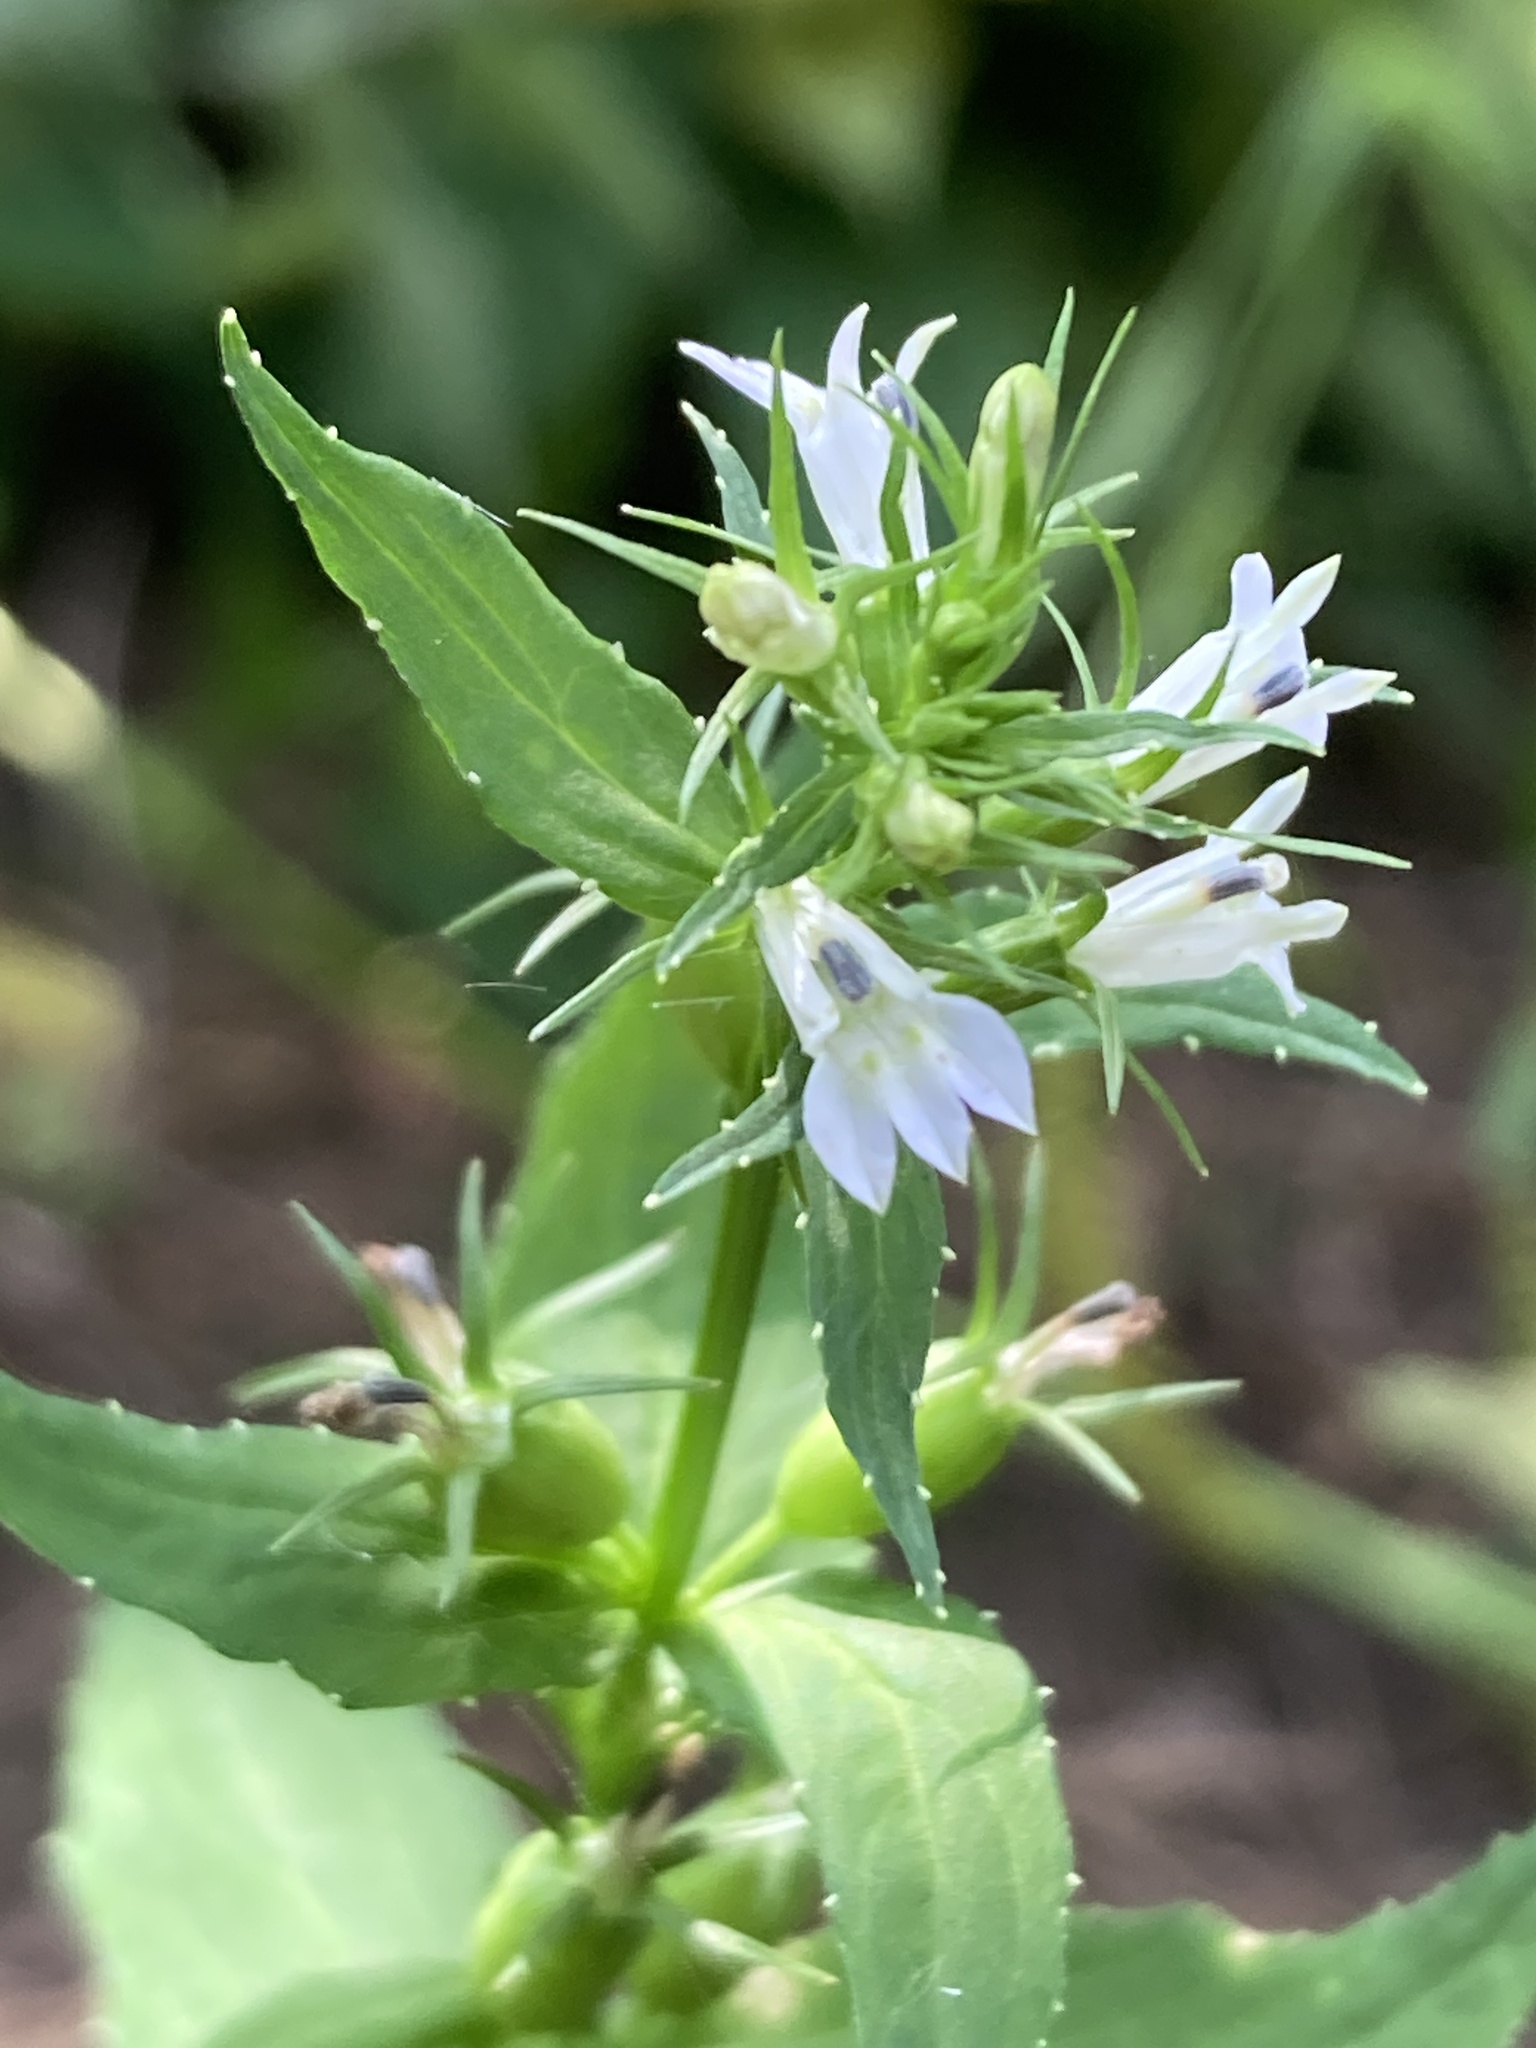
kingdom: Plantae
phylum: Tracheophyta
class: Magnoliopsida
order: Asterales
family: Campanulaceae
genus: Lobelia
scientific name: Lobelia inflata
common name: Indian tobacco
